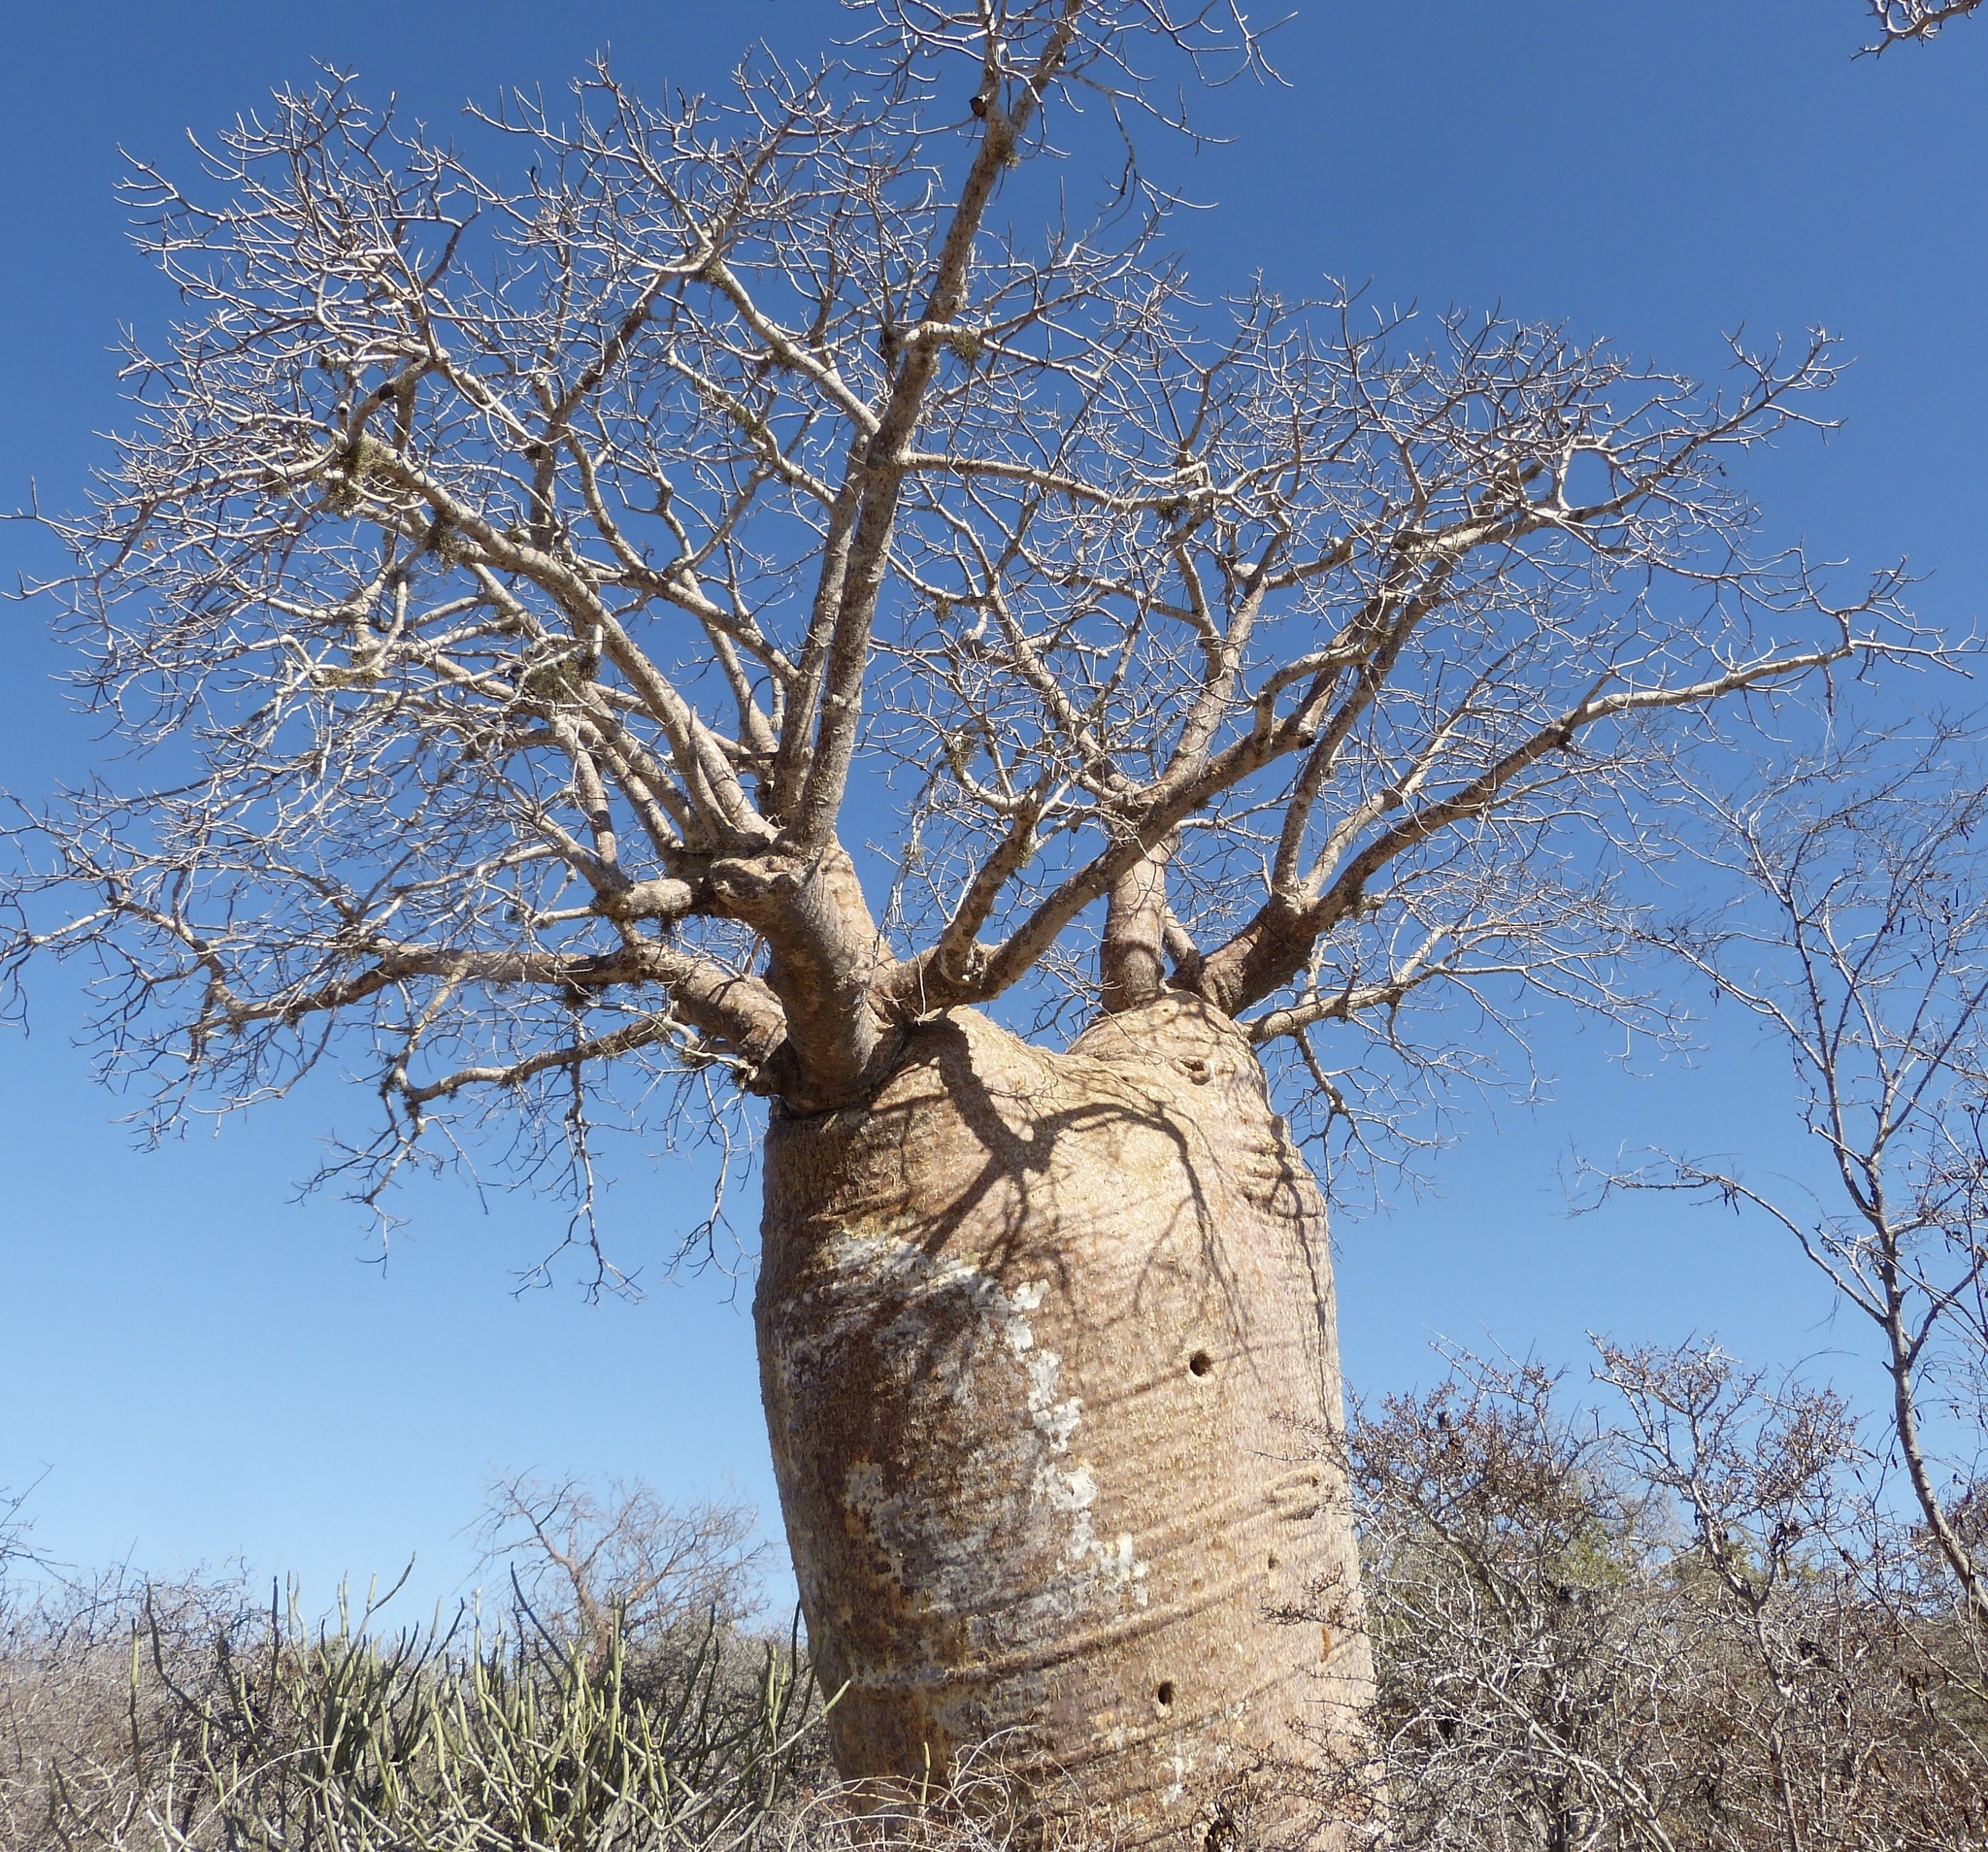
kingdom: Plantae
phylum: Tracheophyta
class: Magnoliopsida
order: Malvales
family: Malvaceae
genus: Adansonia
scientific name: Adansonia rubrostipa
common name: Fony baobab
